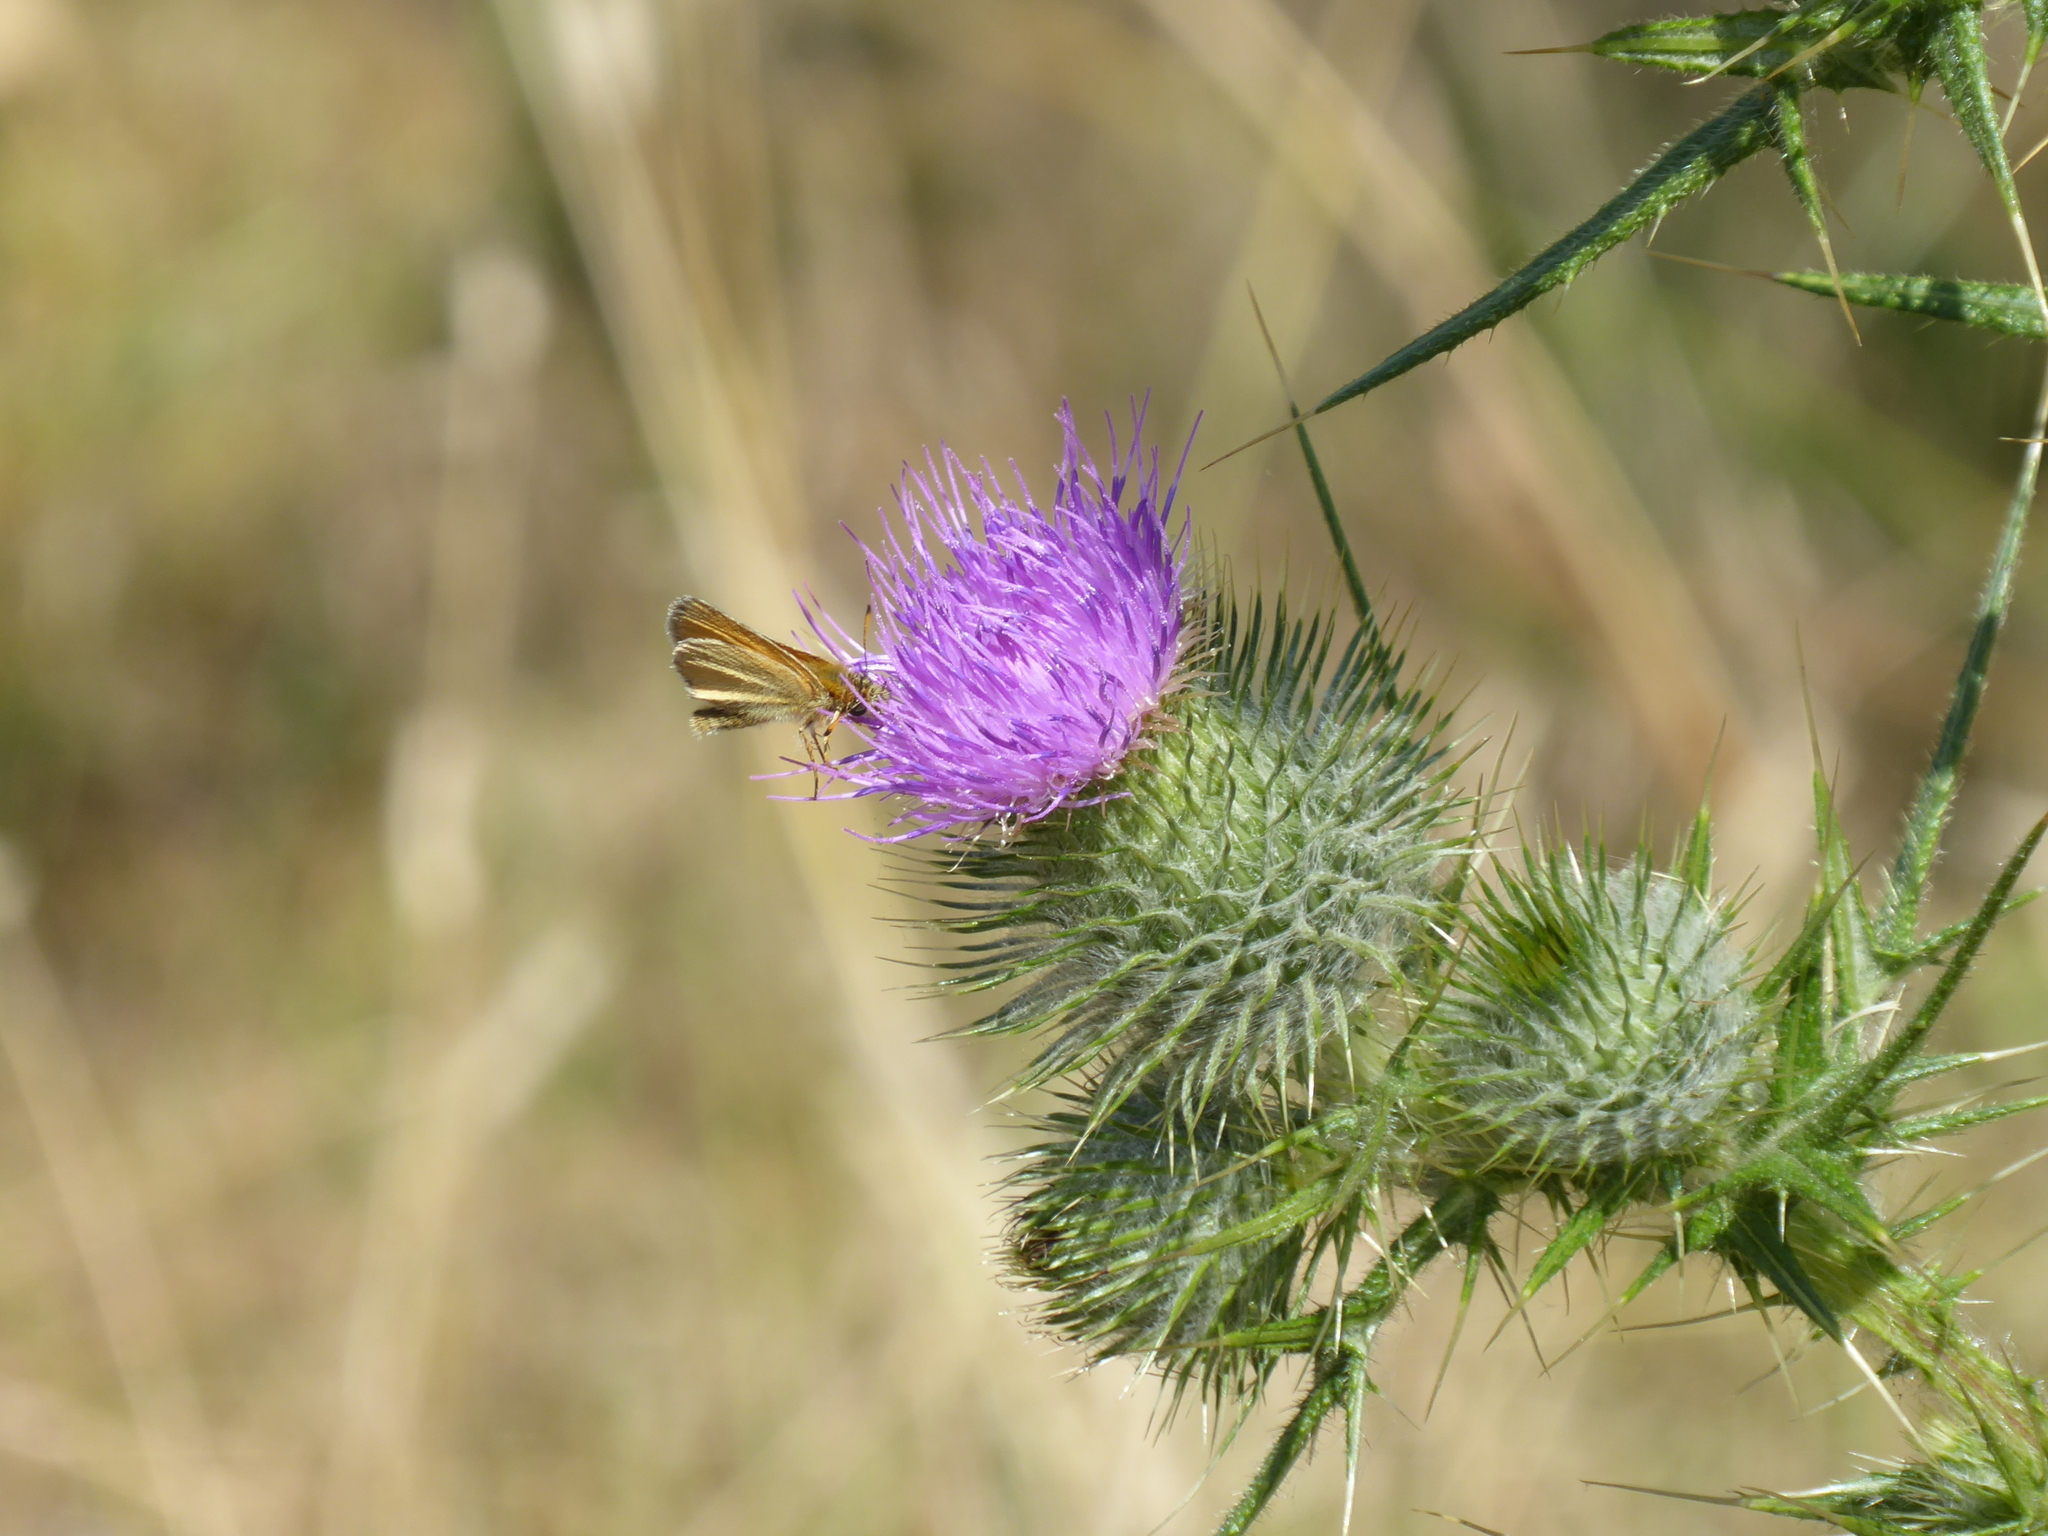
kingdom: Plantae
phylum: Tracheophyta
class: Magnoliopsida
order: Asterales
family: Asteraceae
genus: Cirsium
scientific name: Cirsium vulgare
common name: Bull thistle
